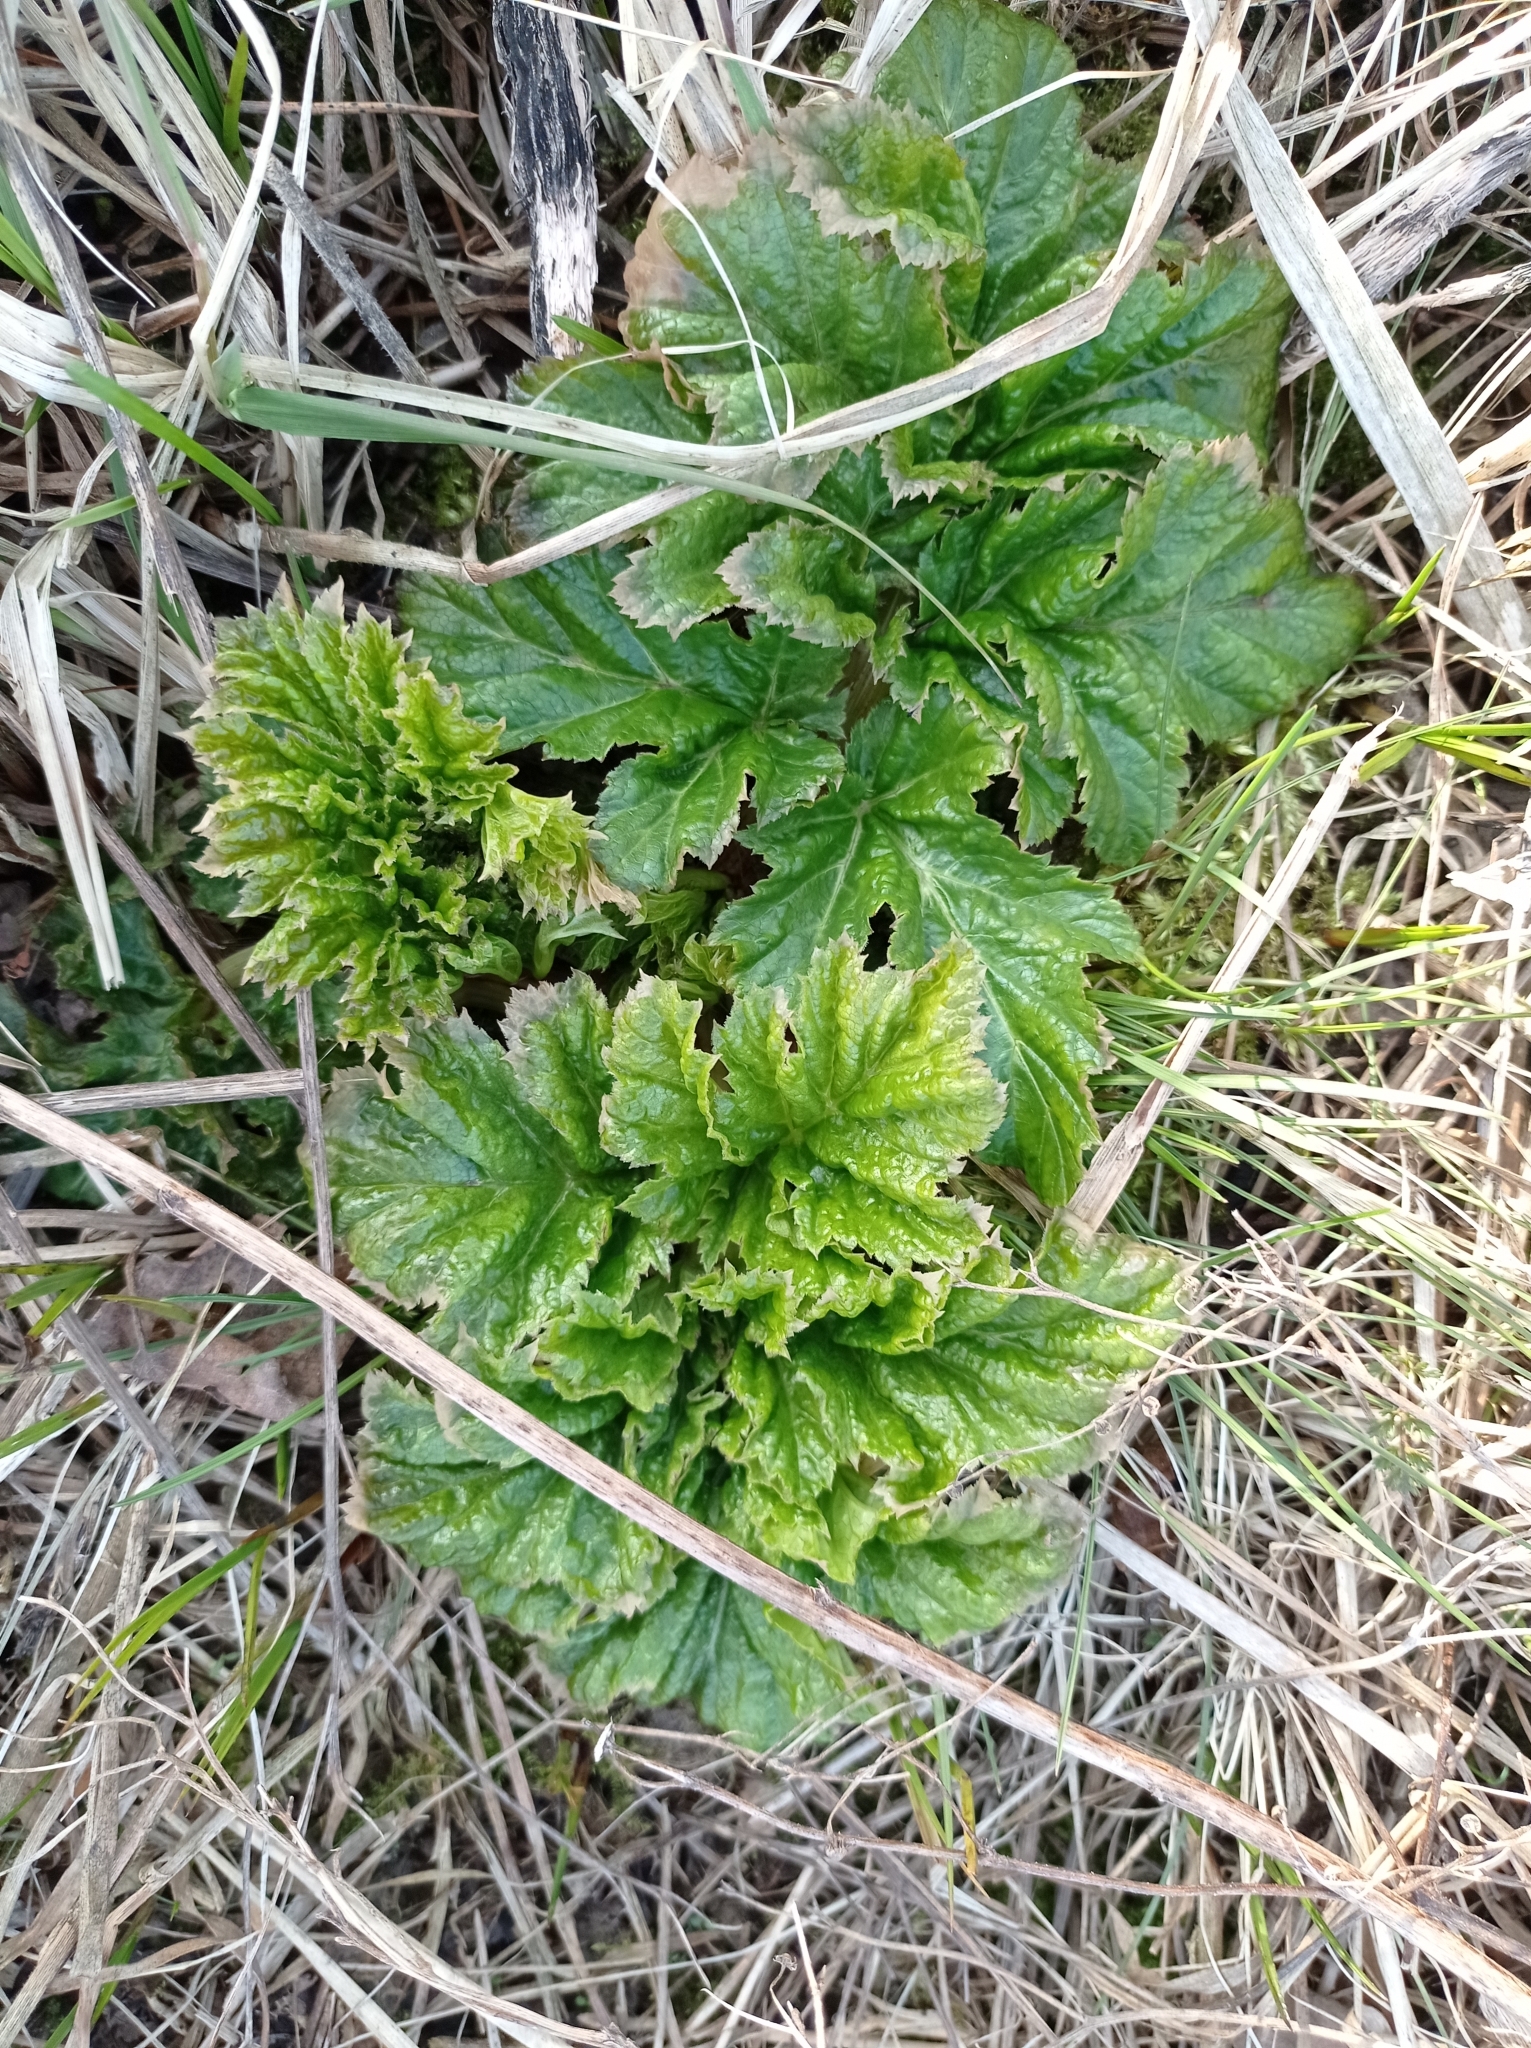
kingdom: Plantae
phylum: Tracheophyta
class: Magnoliopsida
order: Apiales
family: Apiaceae
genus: Heracleum
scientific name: Heracleum sosnowskyi
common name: Sosnowsky's hogweed
